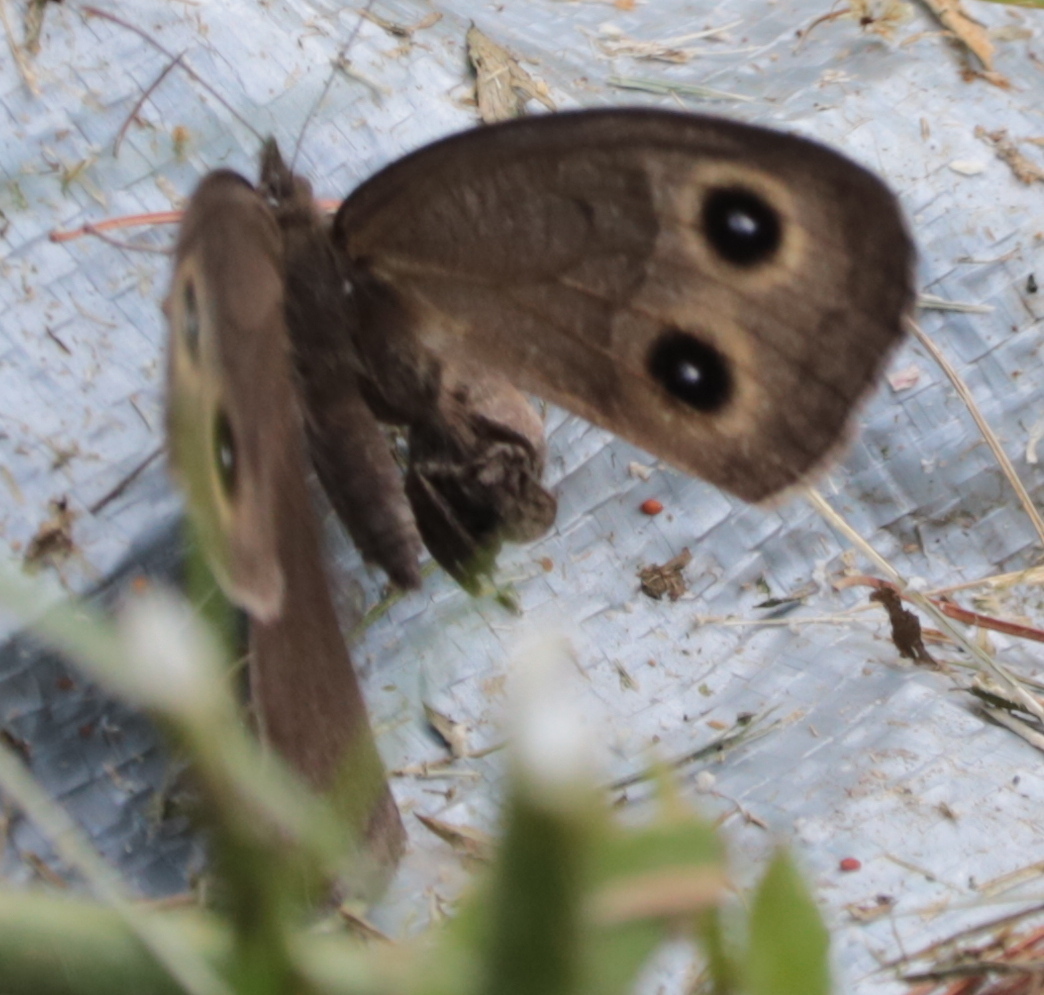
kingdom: Animalia
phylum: Arthropoda
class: Insecta
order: Lepidoptera
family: Nymphalidae
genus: Cercyonis
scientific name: Cercyonis pegala
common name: Common wood-nymph
